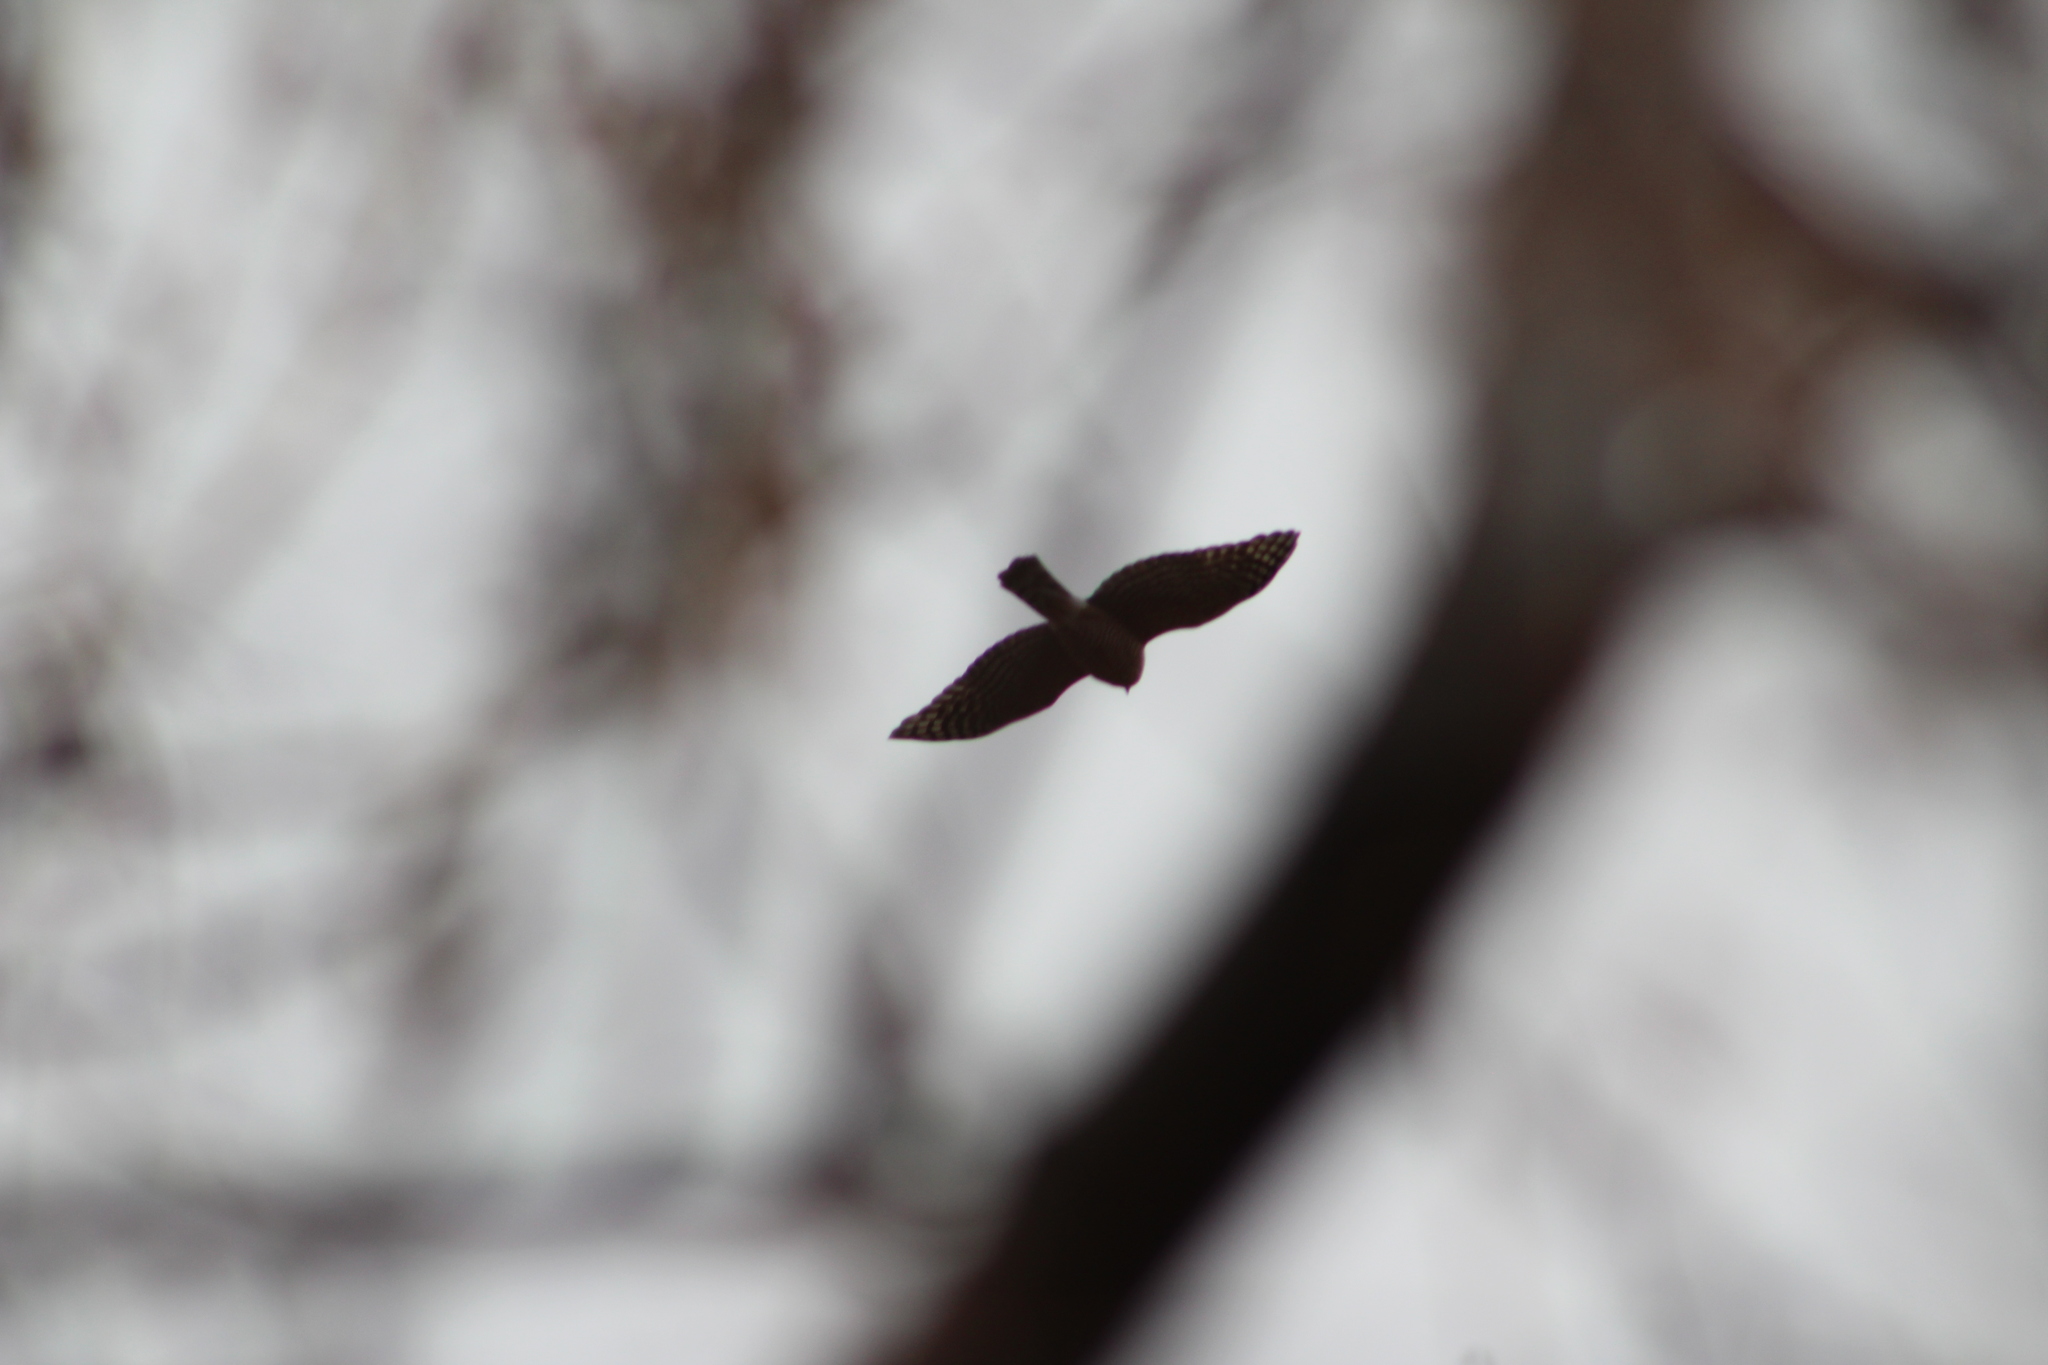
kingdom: Animalia
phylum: Chordata
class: Aves
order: Accipitriformes
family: Accipitridae
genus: Accipiter
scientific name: Accipiter cooperii
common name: Cooper's hawk
